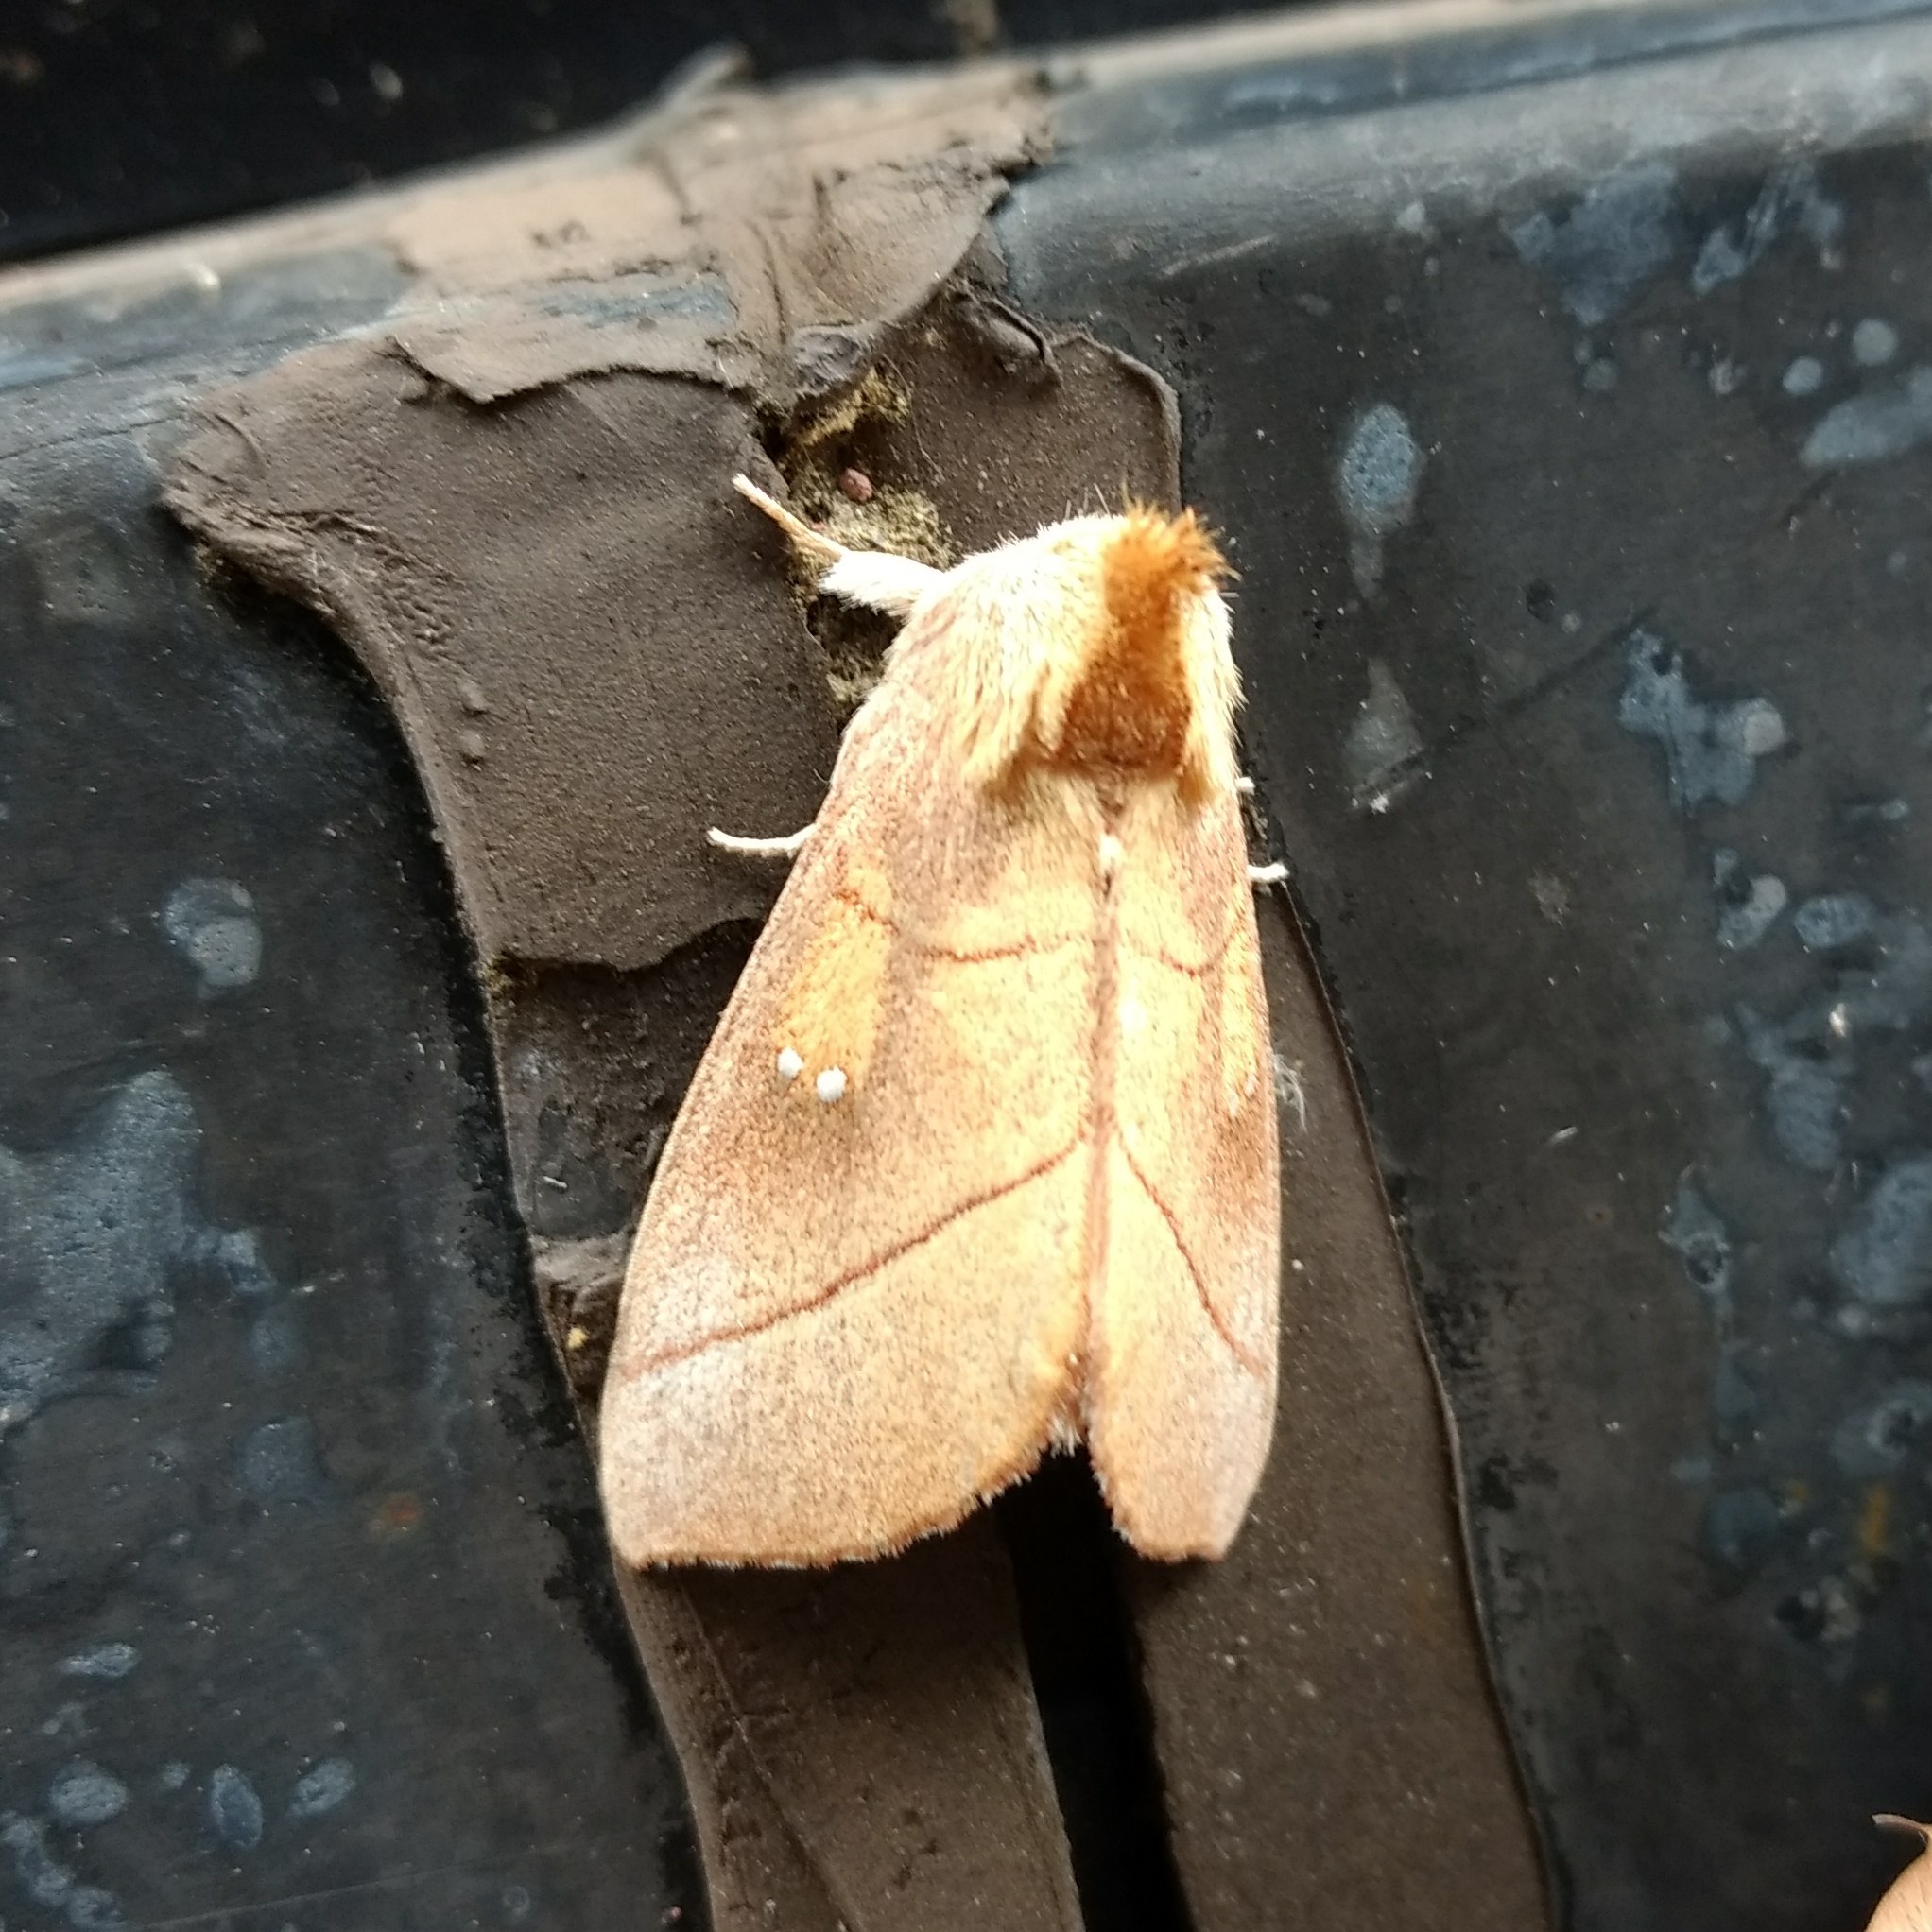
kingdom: Animalia
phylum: Arthropoda
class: Insecta
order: Lepidoptera
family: Notodontidae
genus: Nadata
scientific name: Nadata gibbosa
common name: White-dotted prominent
